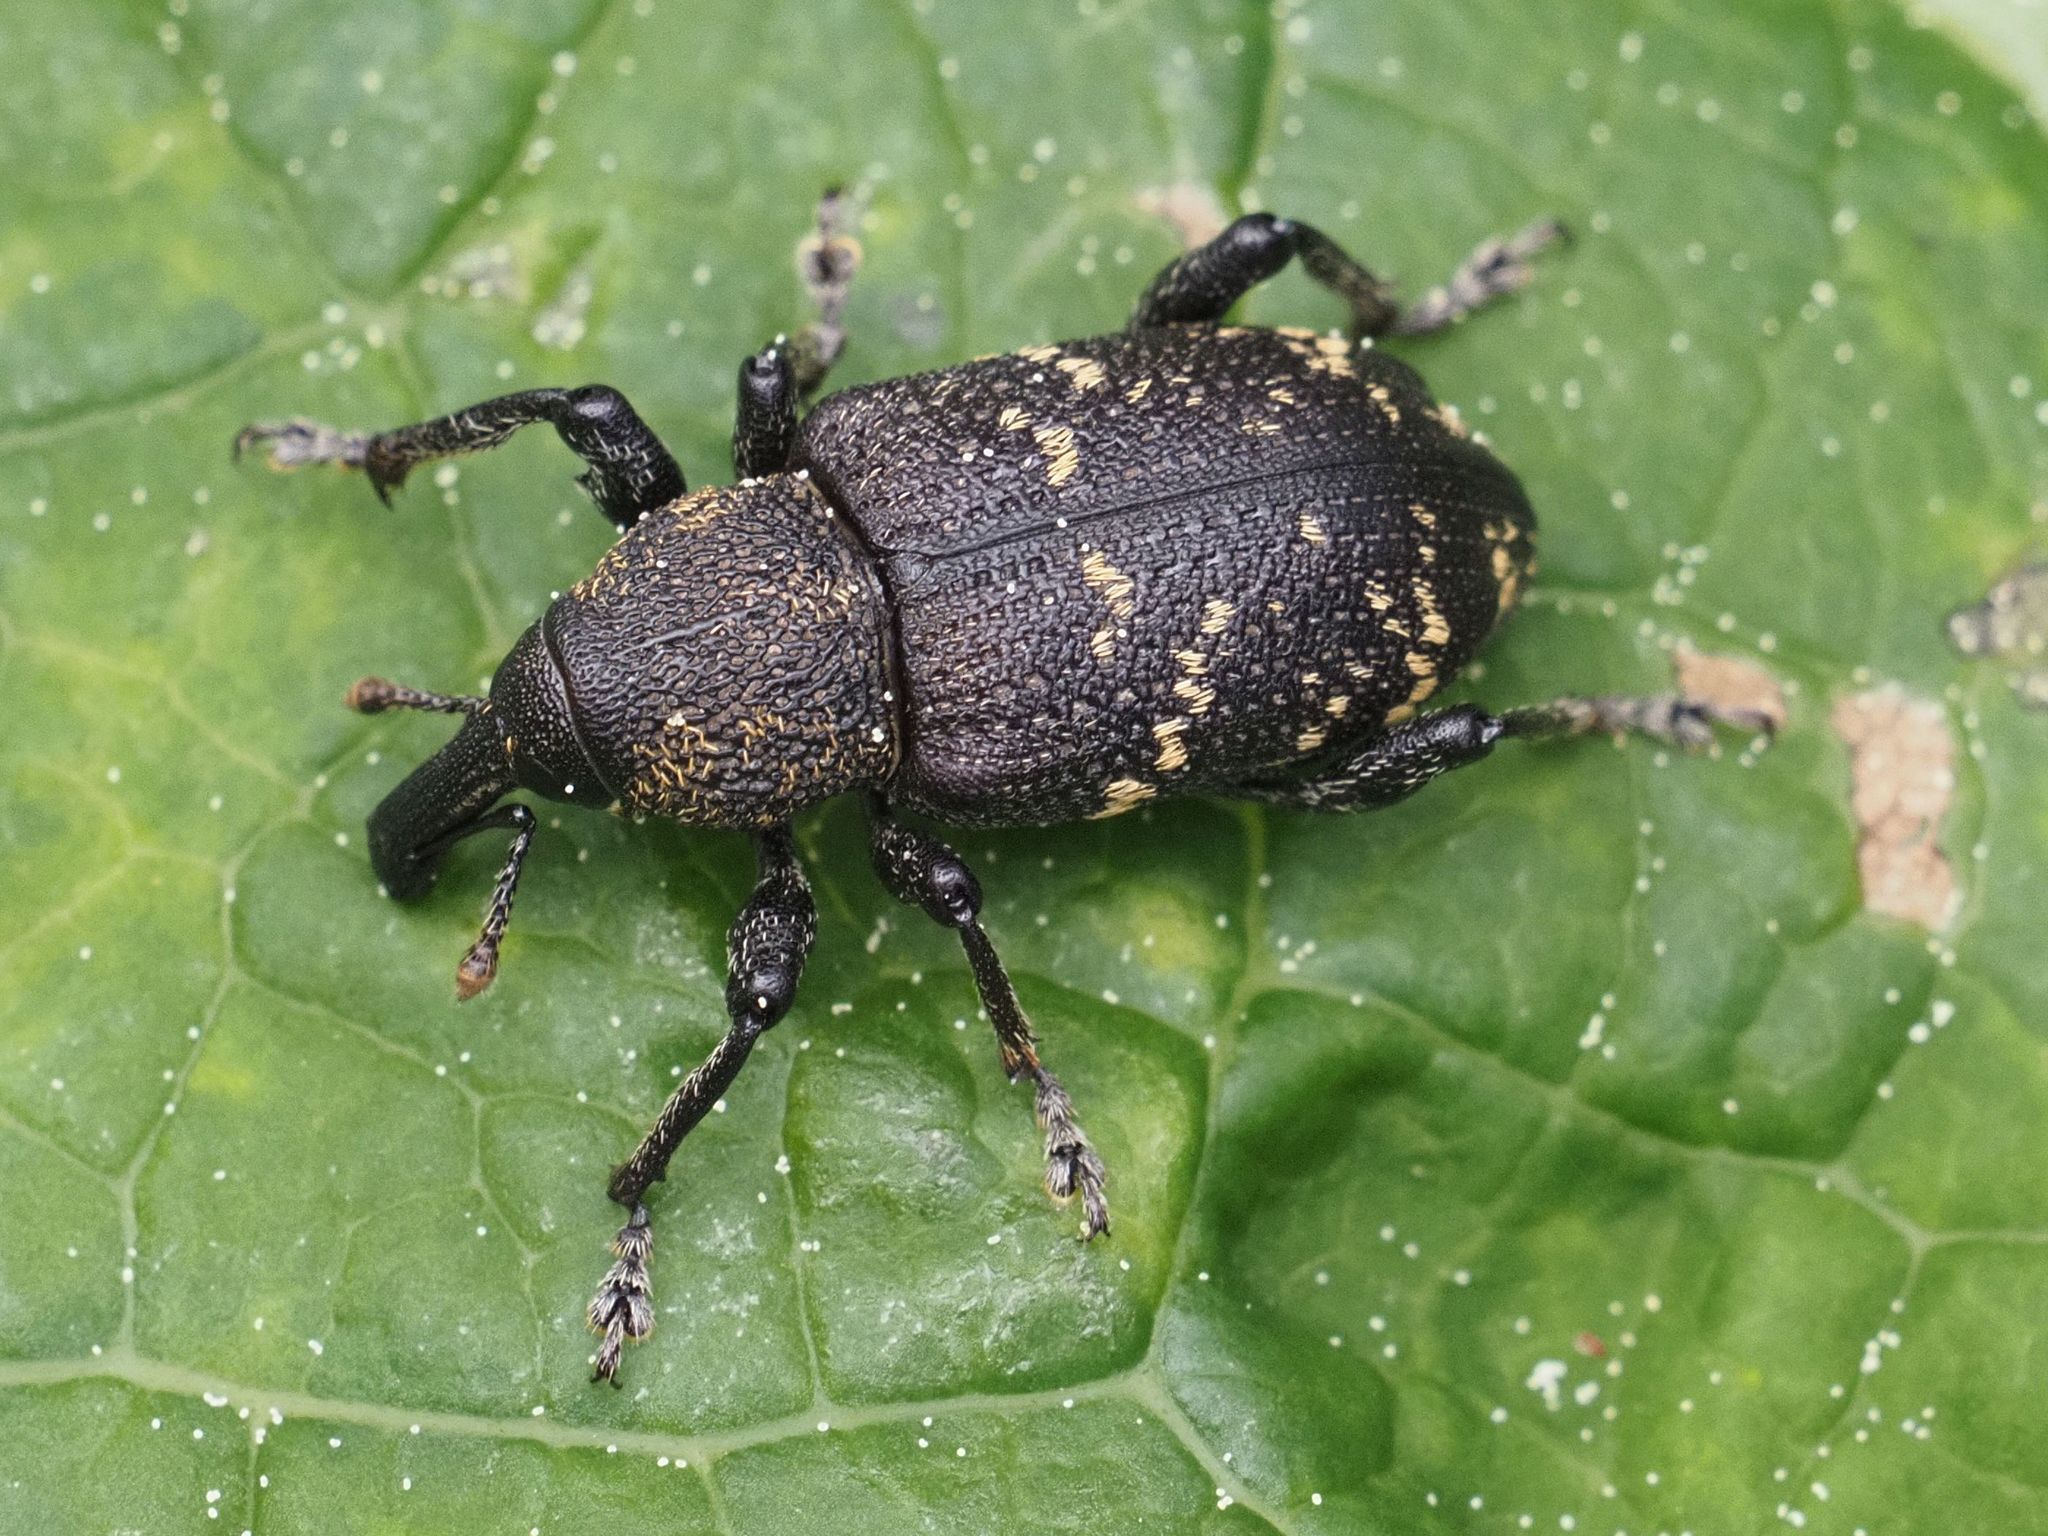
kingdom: Animalia
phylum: Arthropoda
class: Insecta
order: Coleoptera
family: Curculionidae
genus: Hylobius
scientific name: Hylobius abietis
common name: Large pine weevil
